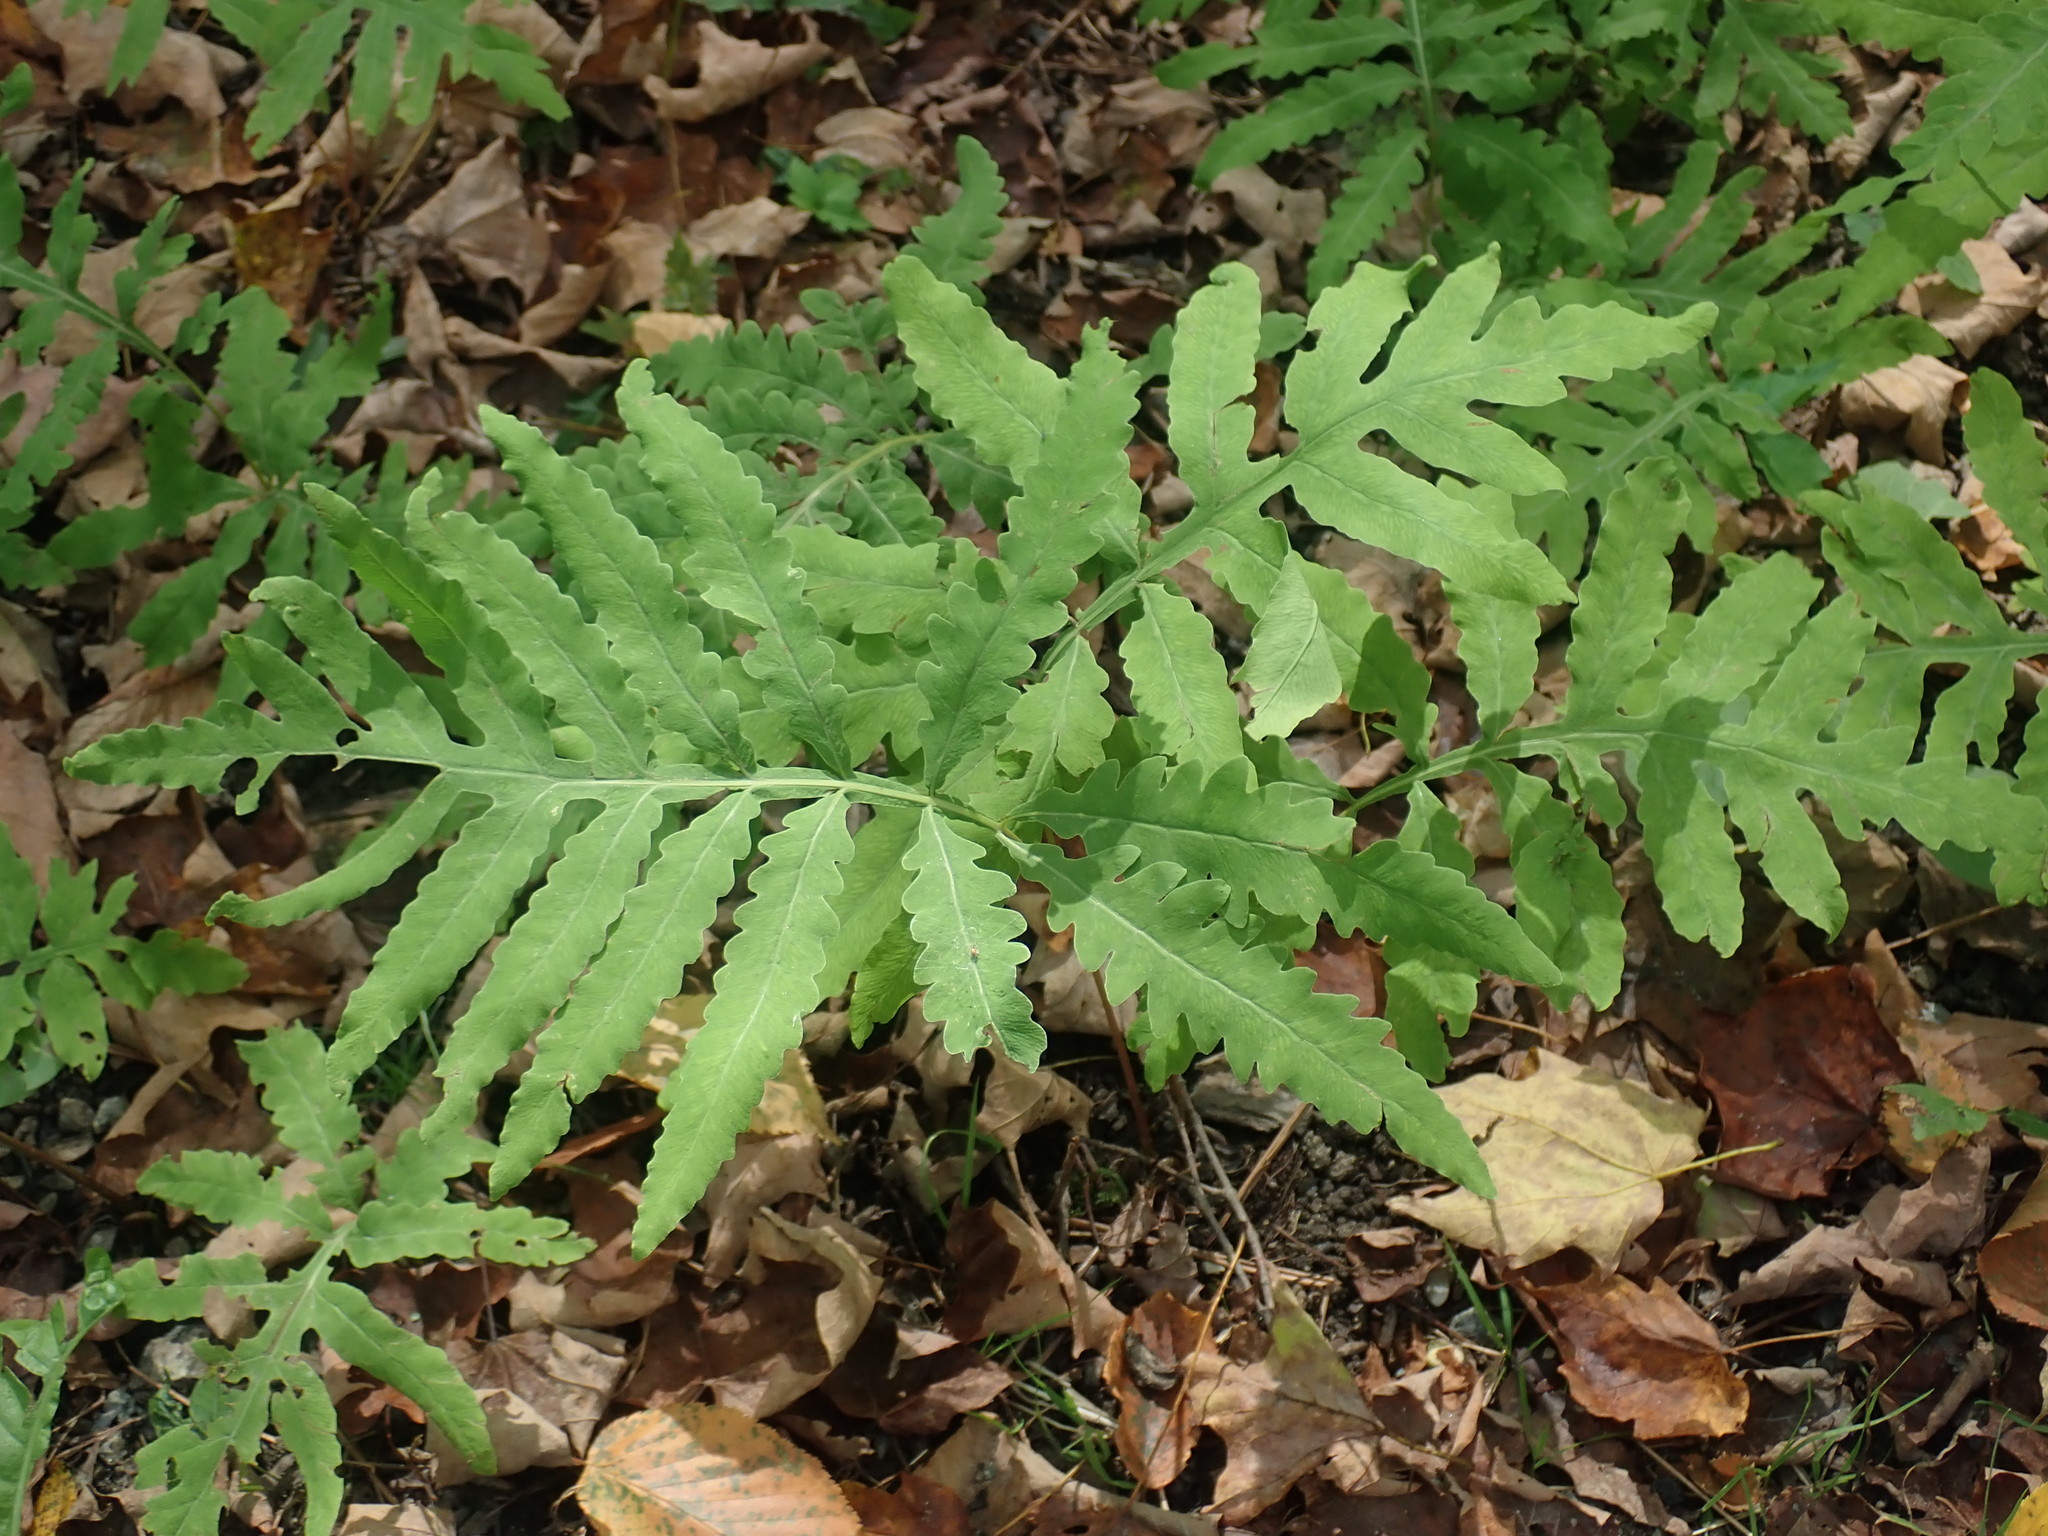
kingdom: Plantae
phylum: Tracheophyta
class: Polypodiopsida
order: Polypodiales
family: Onocleaceae
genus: Onoclea
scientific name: Onoclea sensibilis
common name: Sensitive fern
